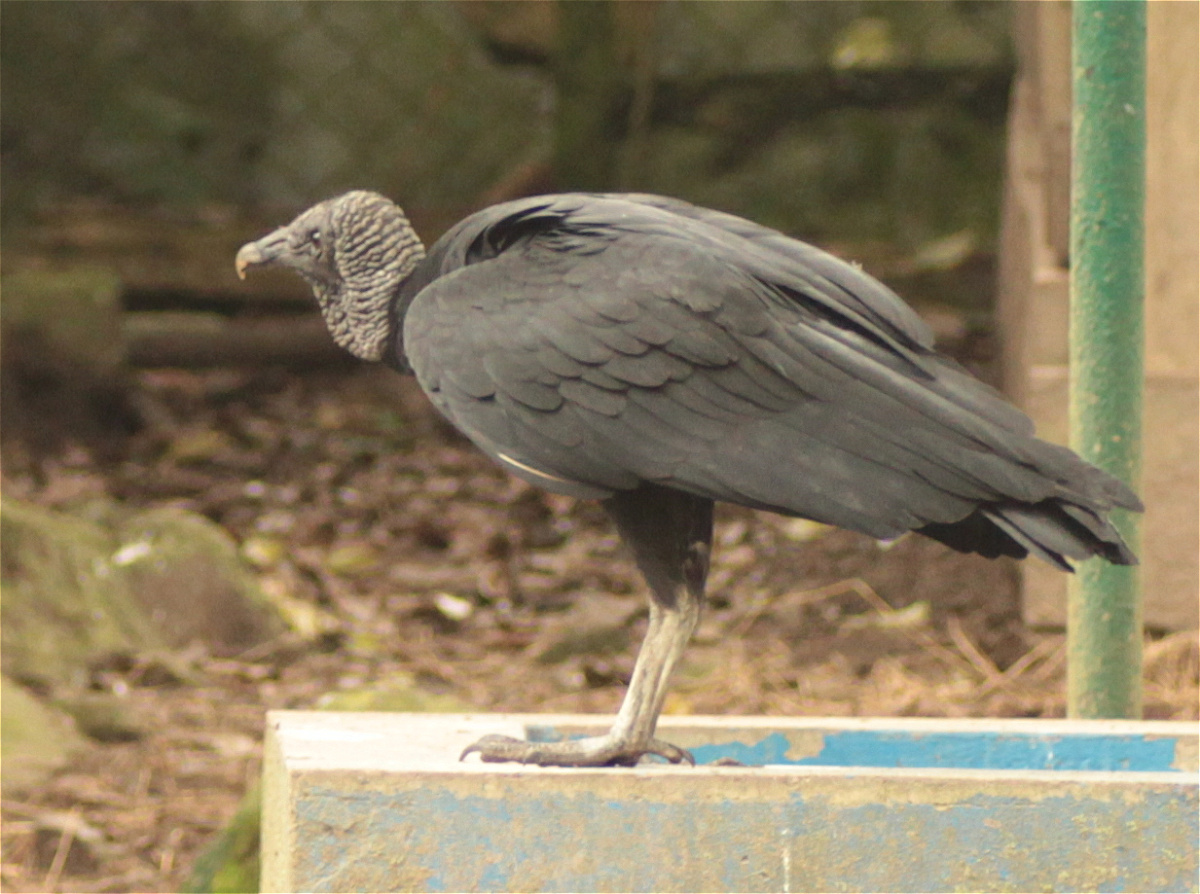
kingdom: Animalia
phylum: Chordata
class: Aves
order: Accipitriformes
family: Cathartidae
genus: Coragyps
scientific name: Coragyps atratus
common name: Black vulture
